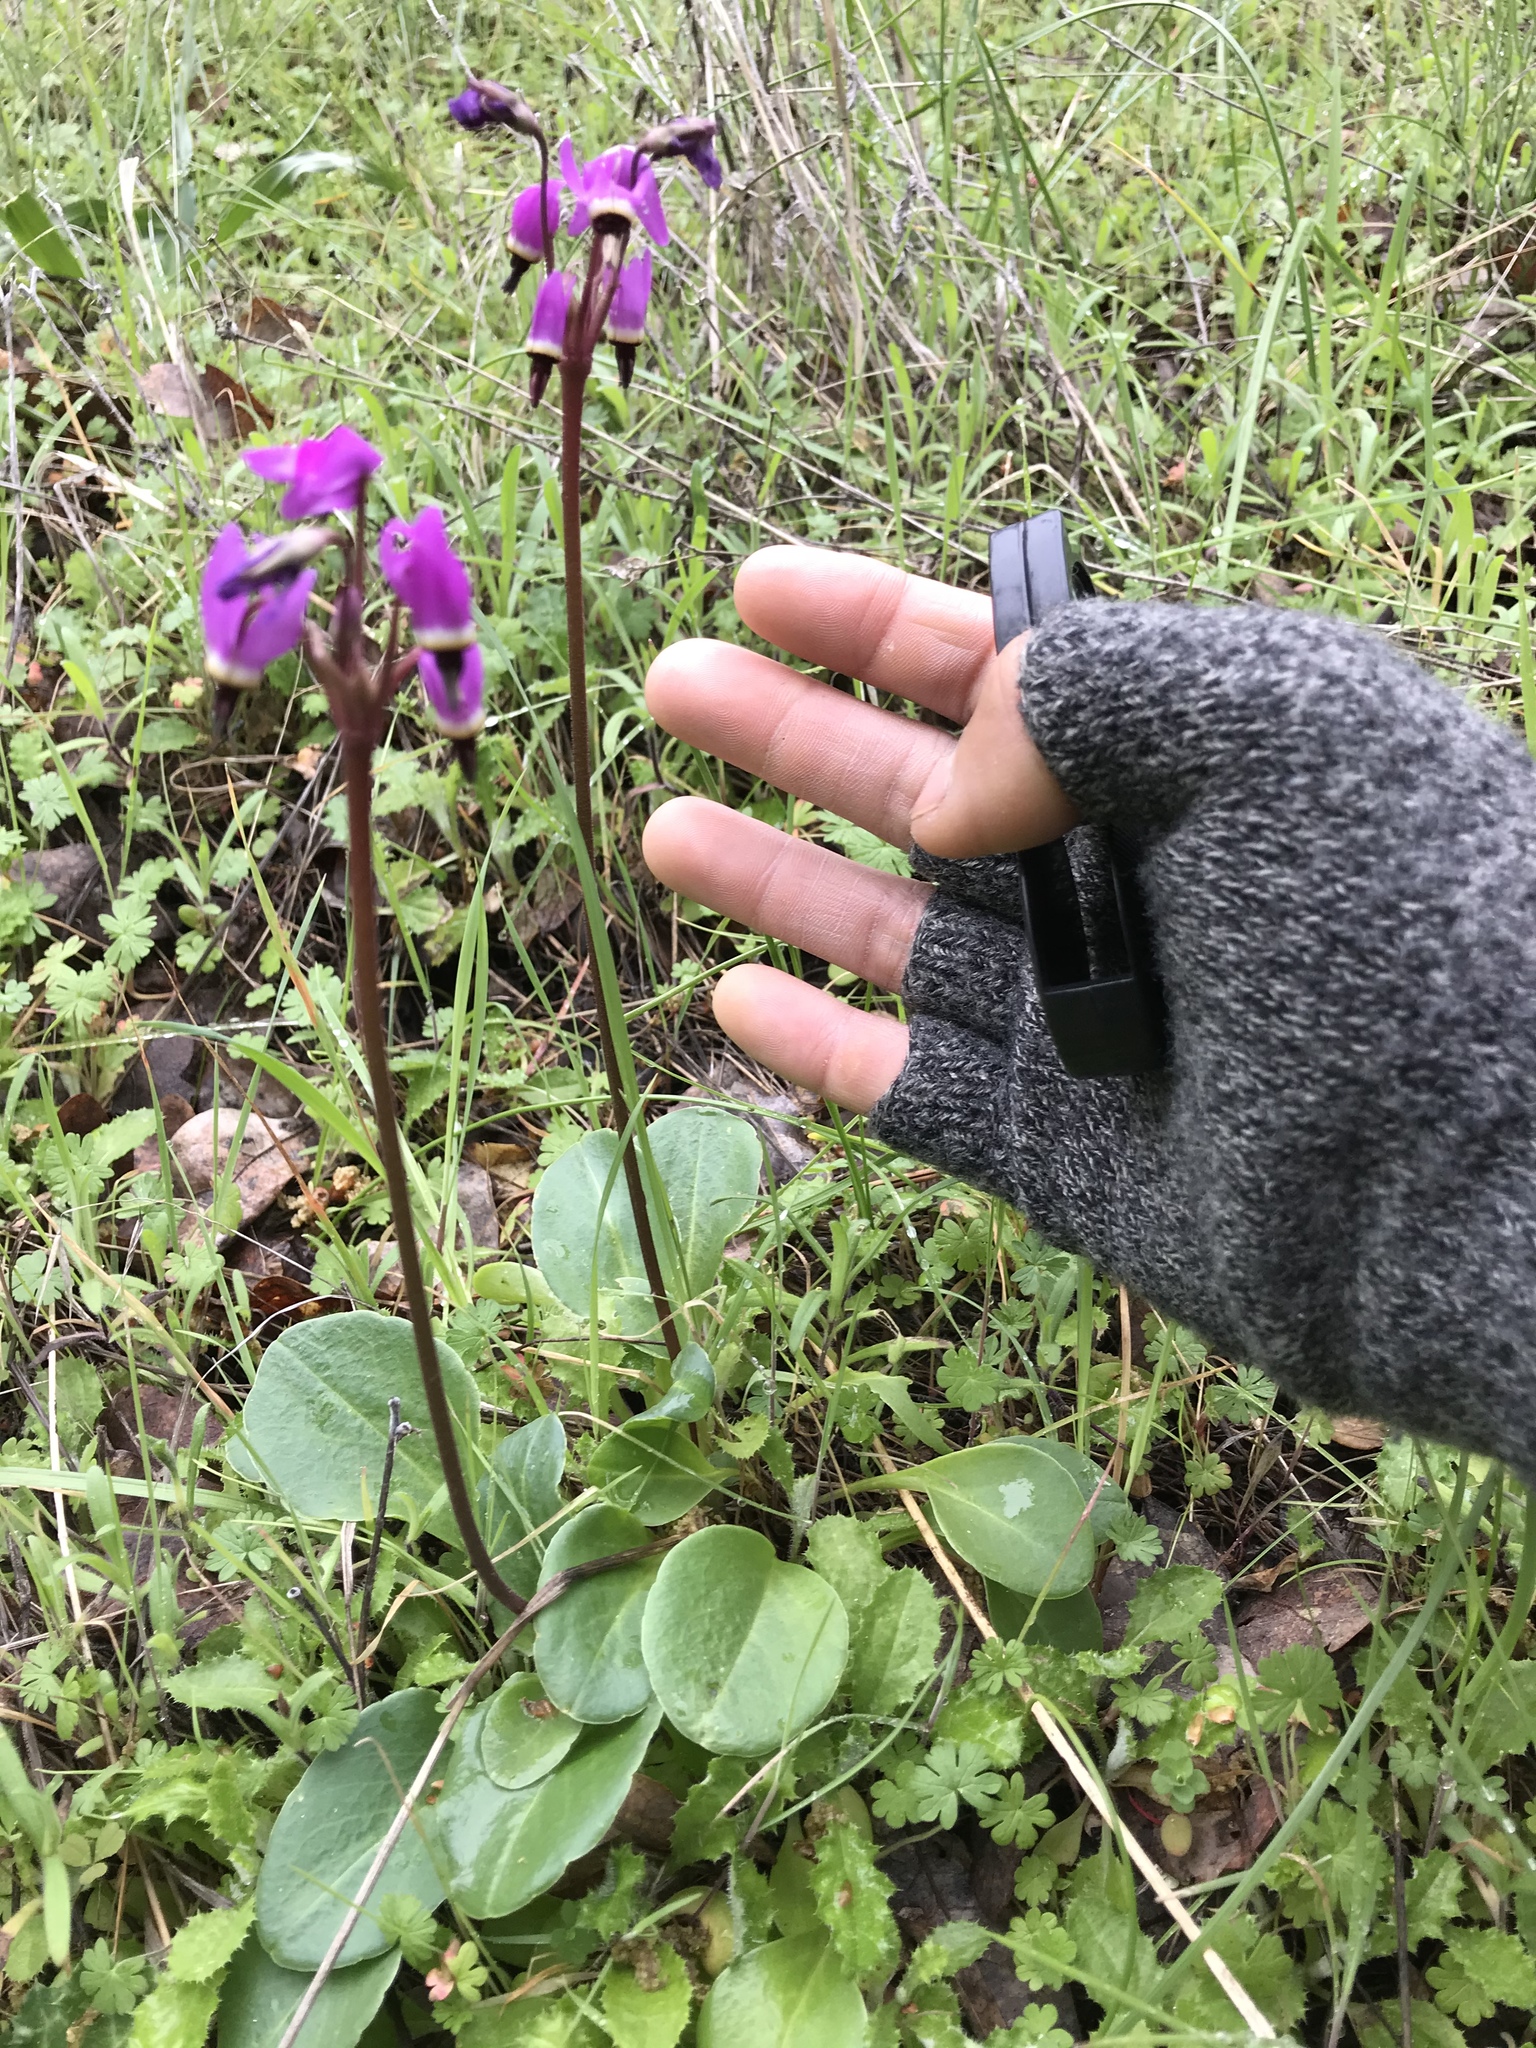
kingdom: Plantae
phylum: Tracheophyta
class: Magnoliopsida
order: Ericales
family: Primulaceae
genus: Dodecatheon
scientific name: Dodecatheon hendersonii
